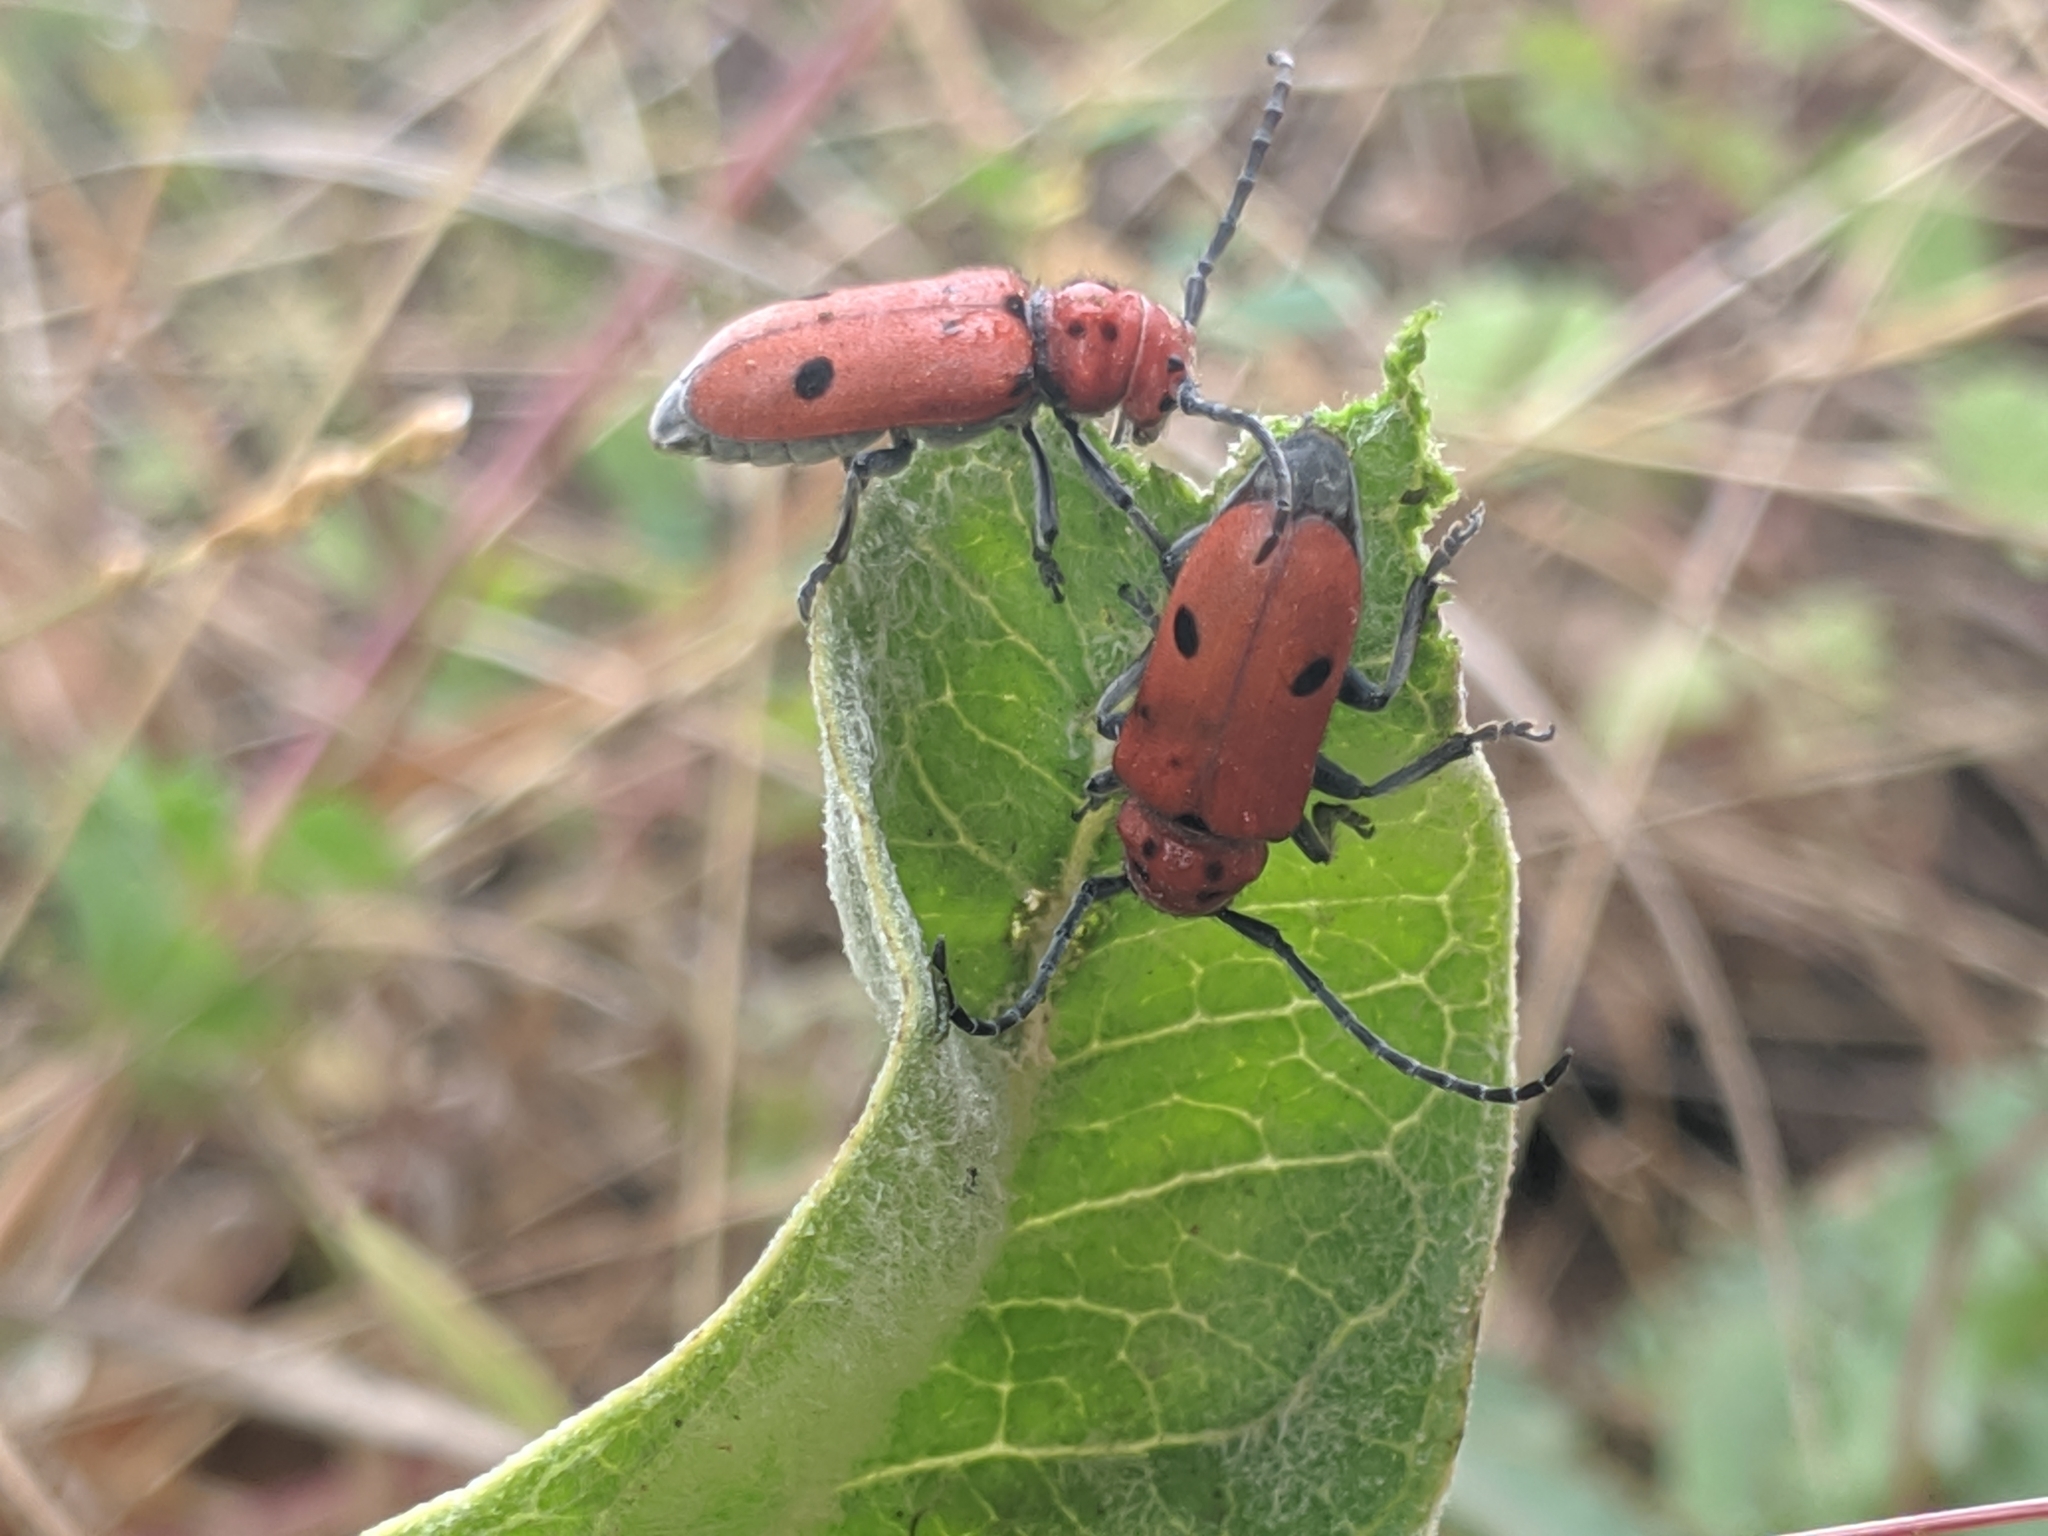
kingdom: Animalia
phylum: Arthropoda
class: Insecta
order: Coleoptera
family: Cerambycidae
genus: Tetraopes
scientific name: Tetraopes basalis
